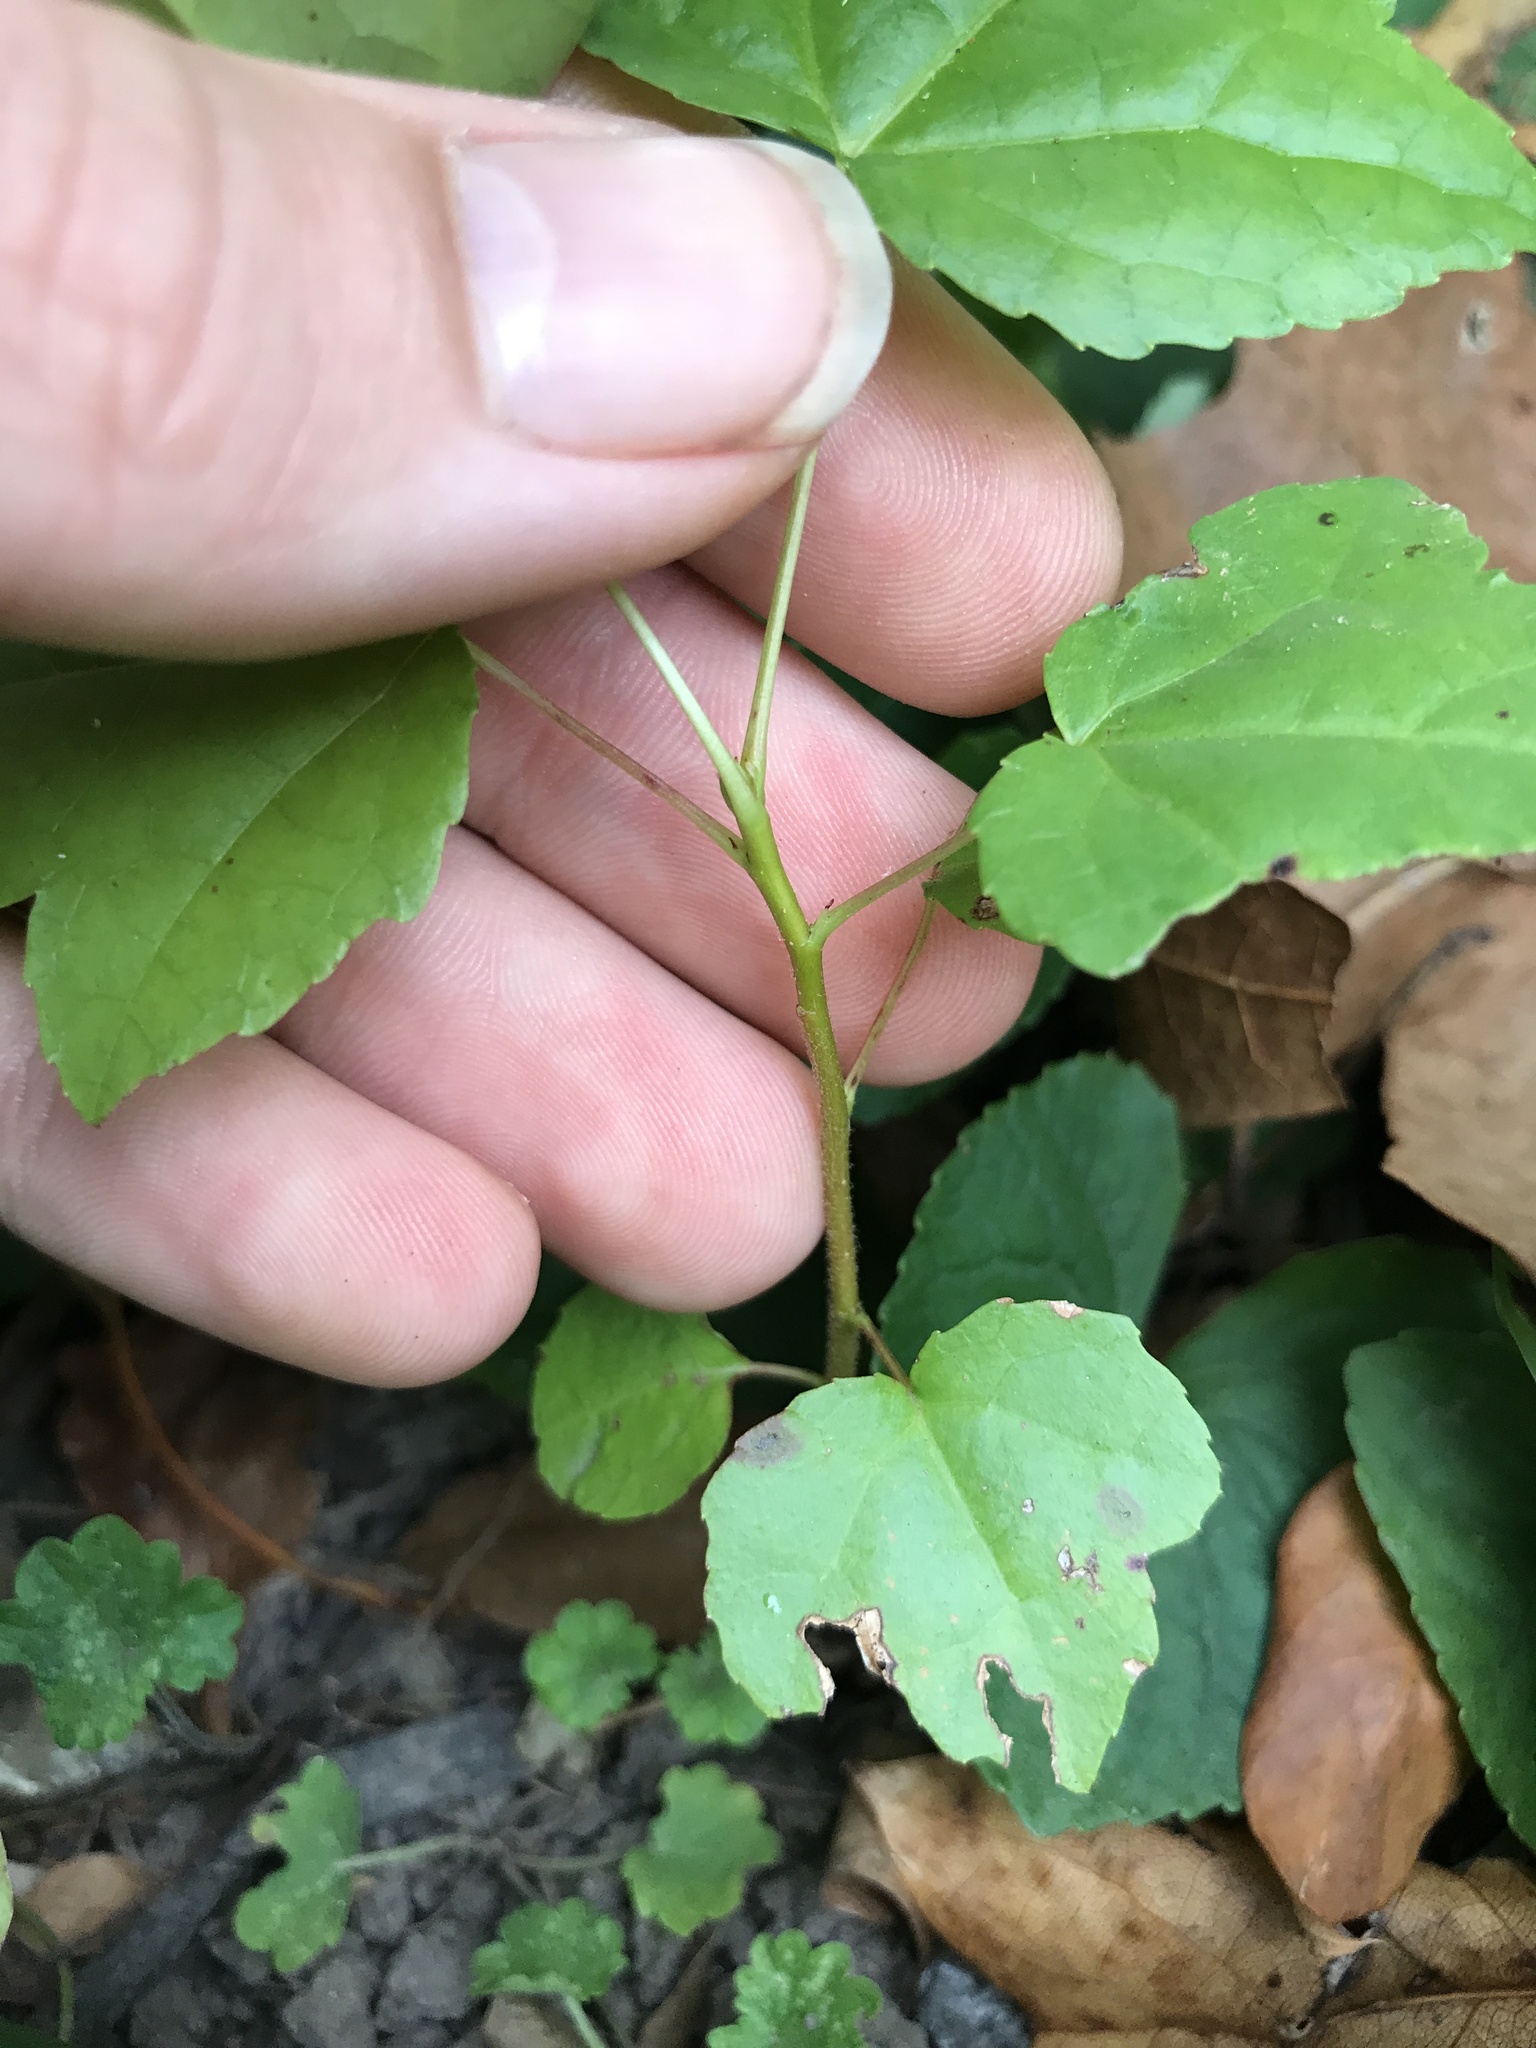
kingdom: Plantae
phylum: Tracheophyta
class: Magnoliopsida
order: Saxifragales
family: Altingiaceae
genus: Liquidambar
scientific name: Liquidambar styraciflua
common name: Sweet gum
